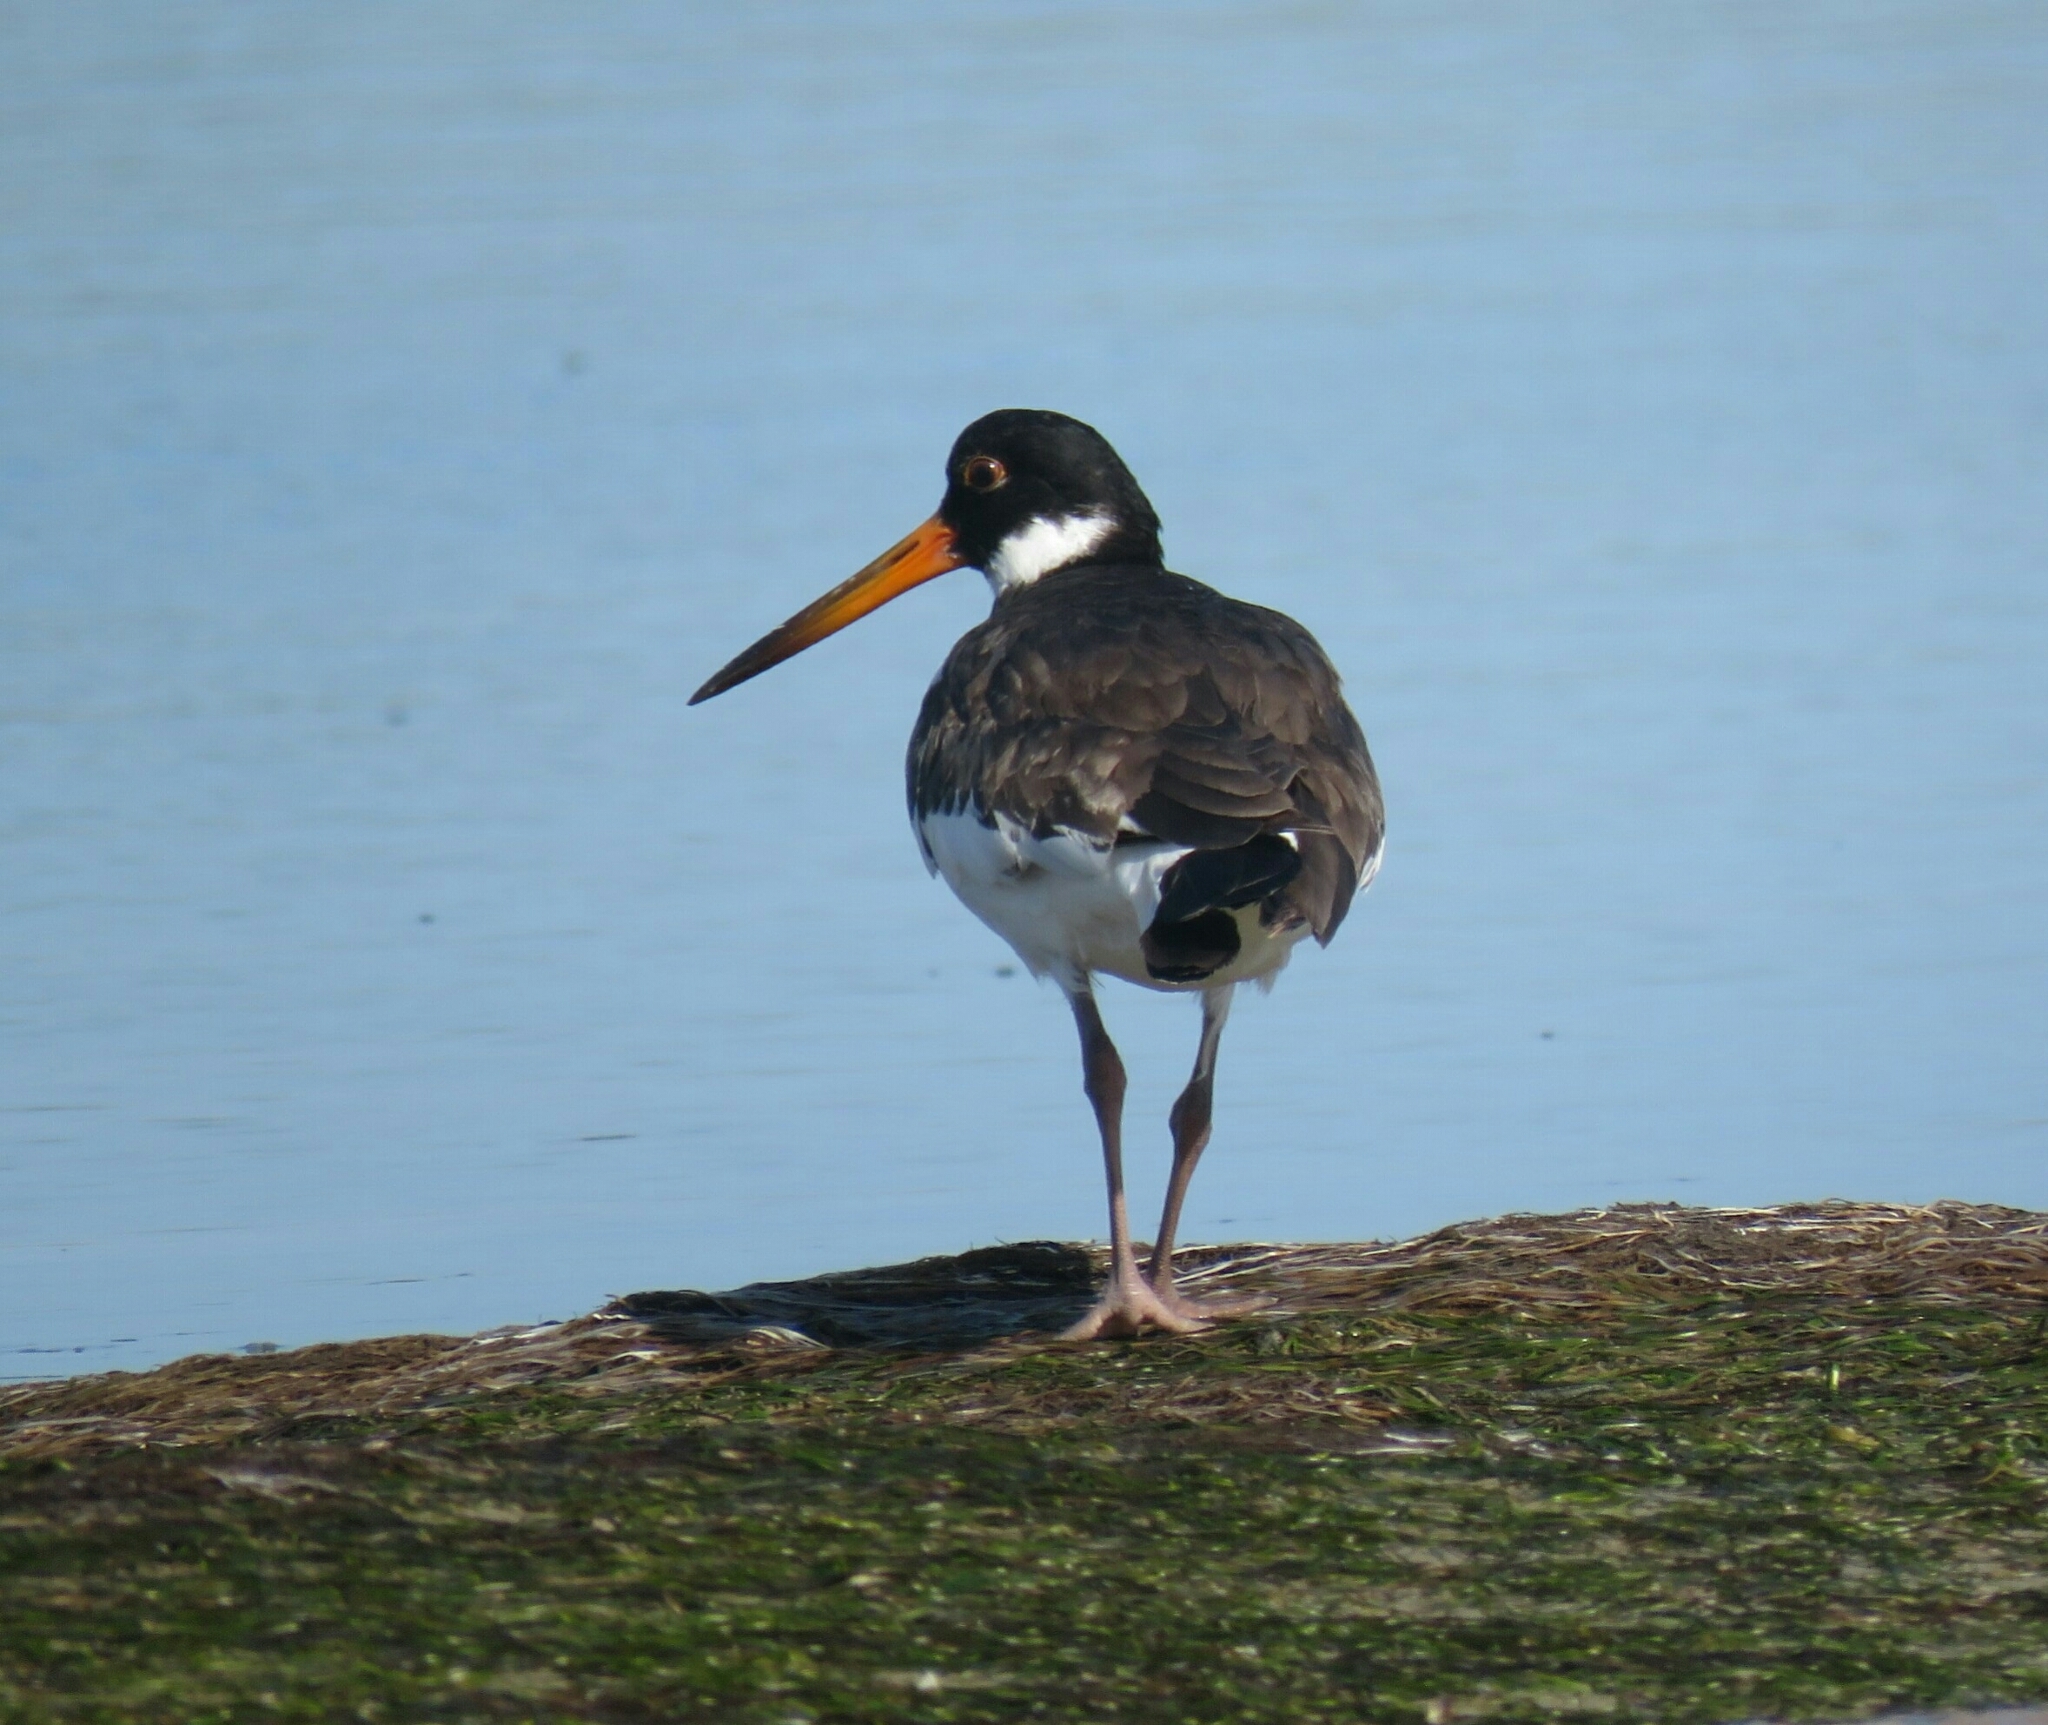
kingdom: Animalia
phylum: Chordata
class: Aves
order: Charadriiformes
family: Haematopodidae
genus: Haematopus
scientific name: Haematopus ostralegus
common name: Eurasian oystercatcher
